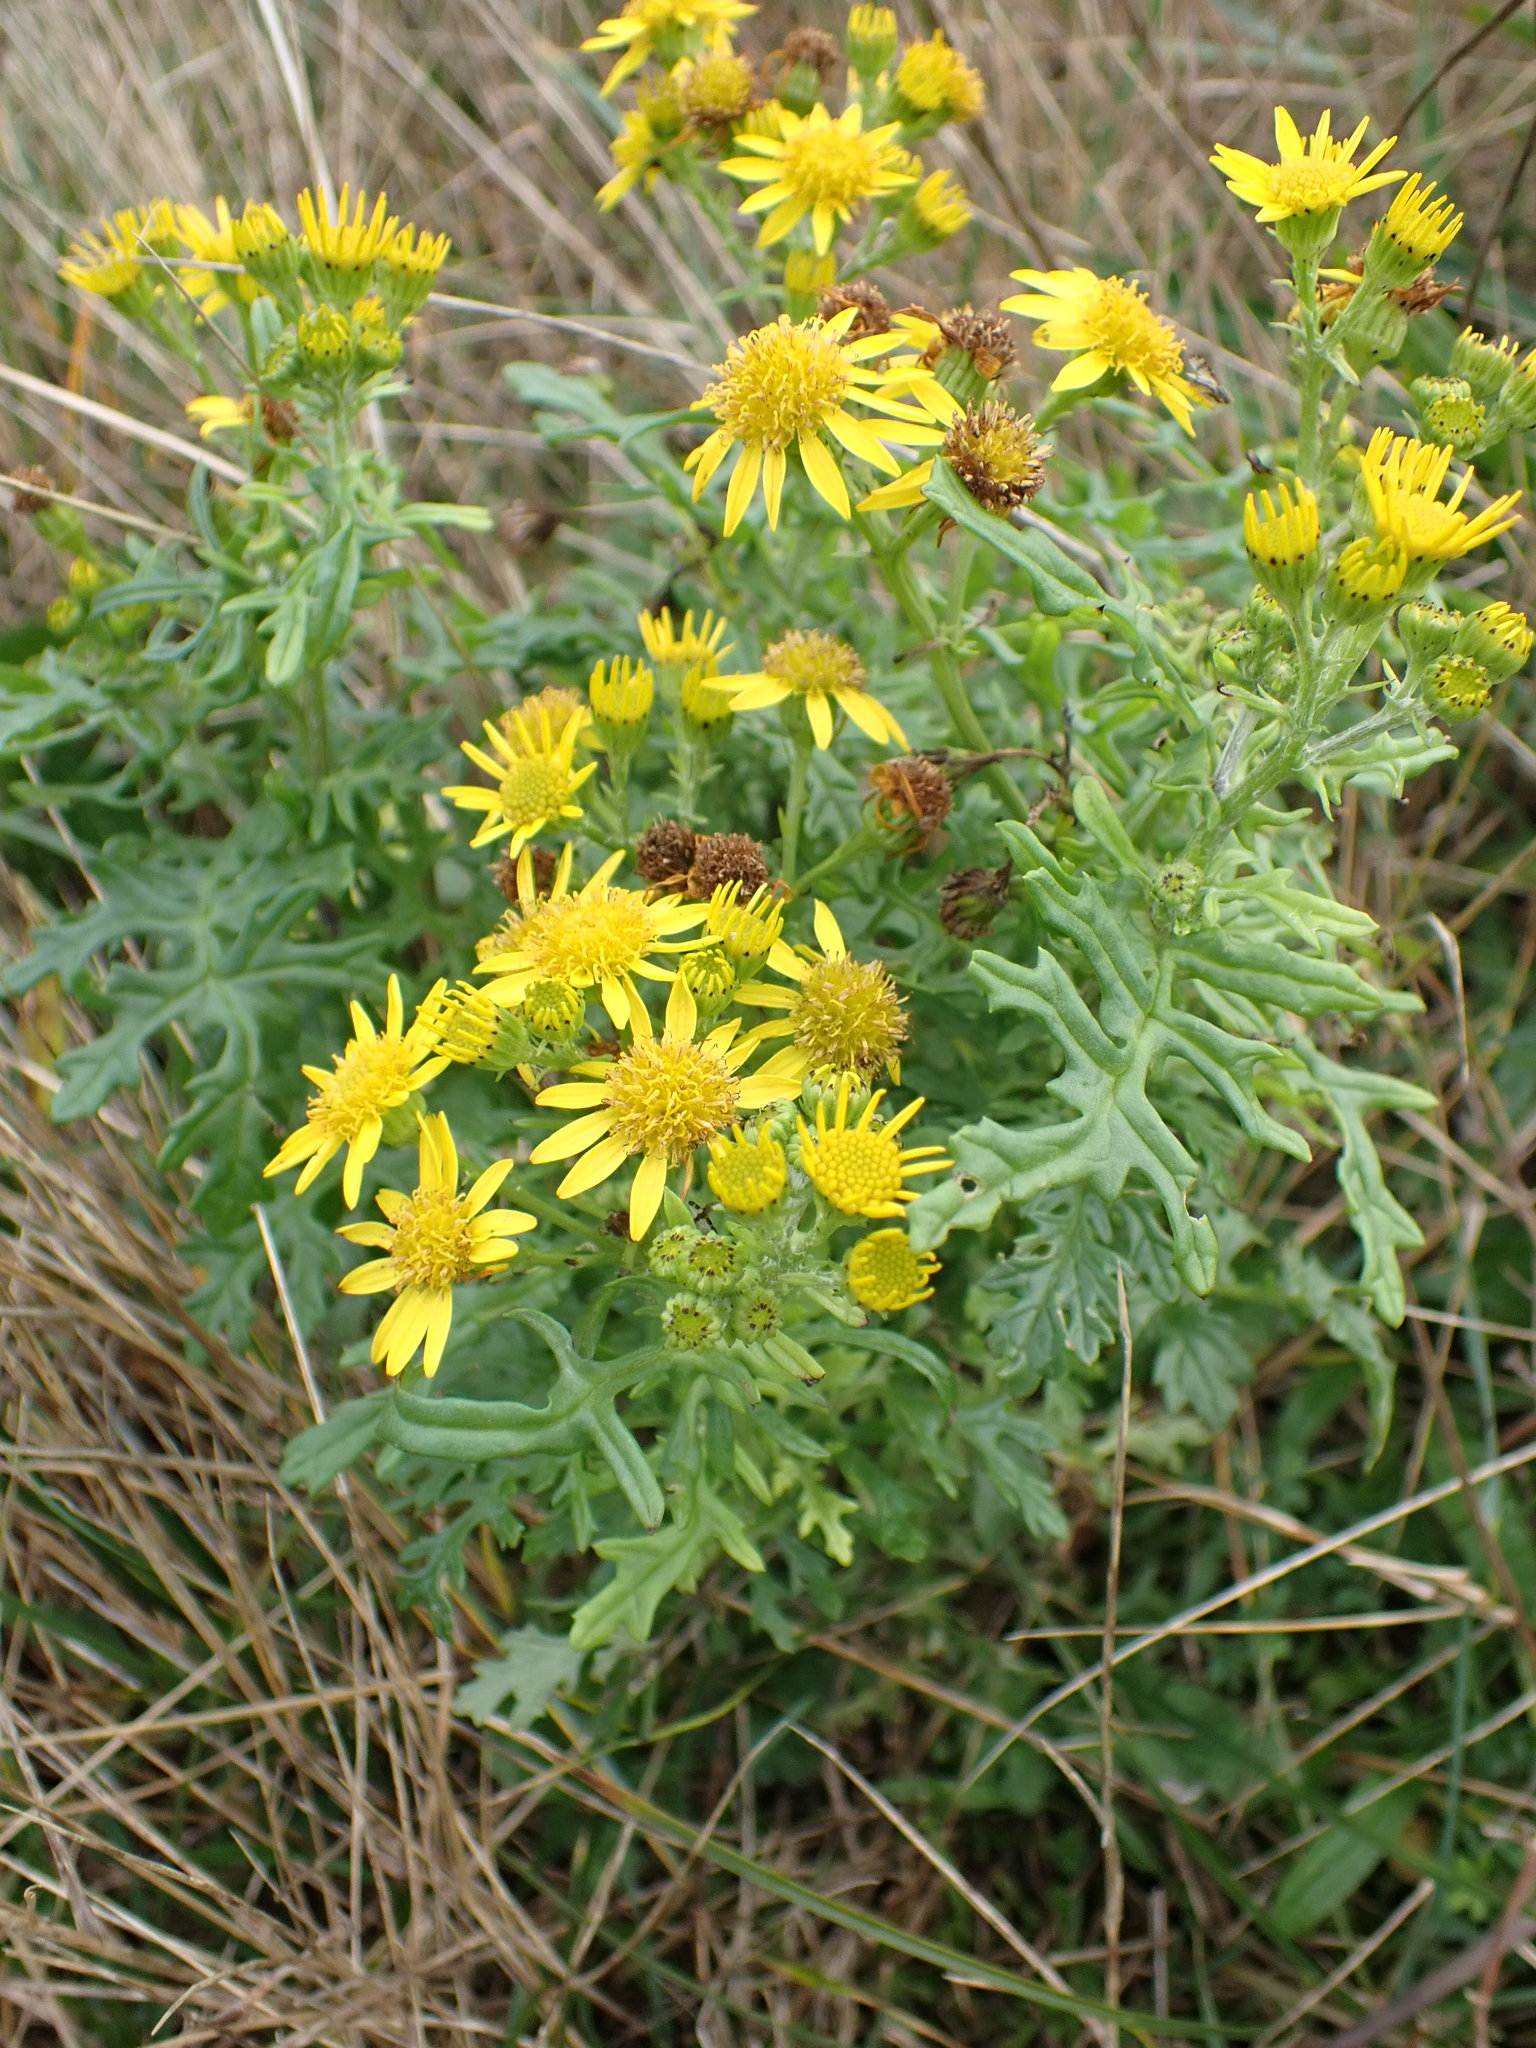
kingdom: Plantae
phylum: Tracheophyta
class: Magnoliopsida
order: Asterales
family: Asteraceae
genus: Jacobaea
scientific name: Jacobaea vulgaris
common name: Stinking willie
